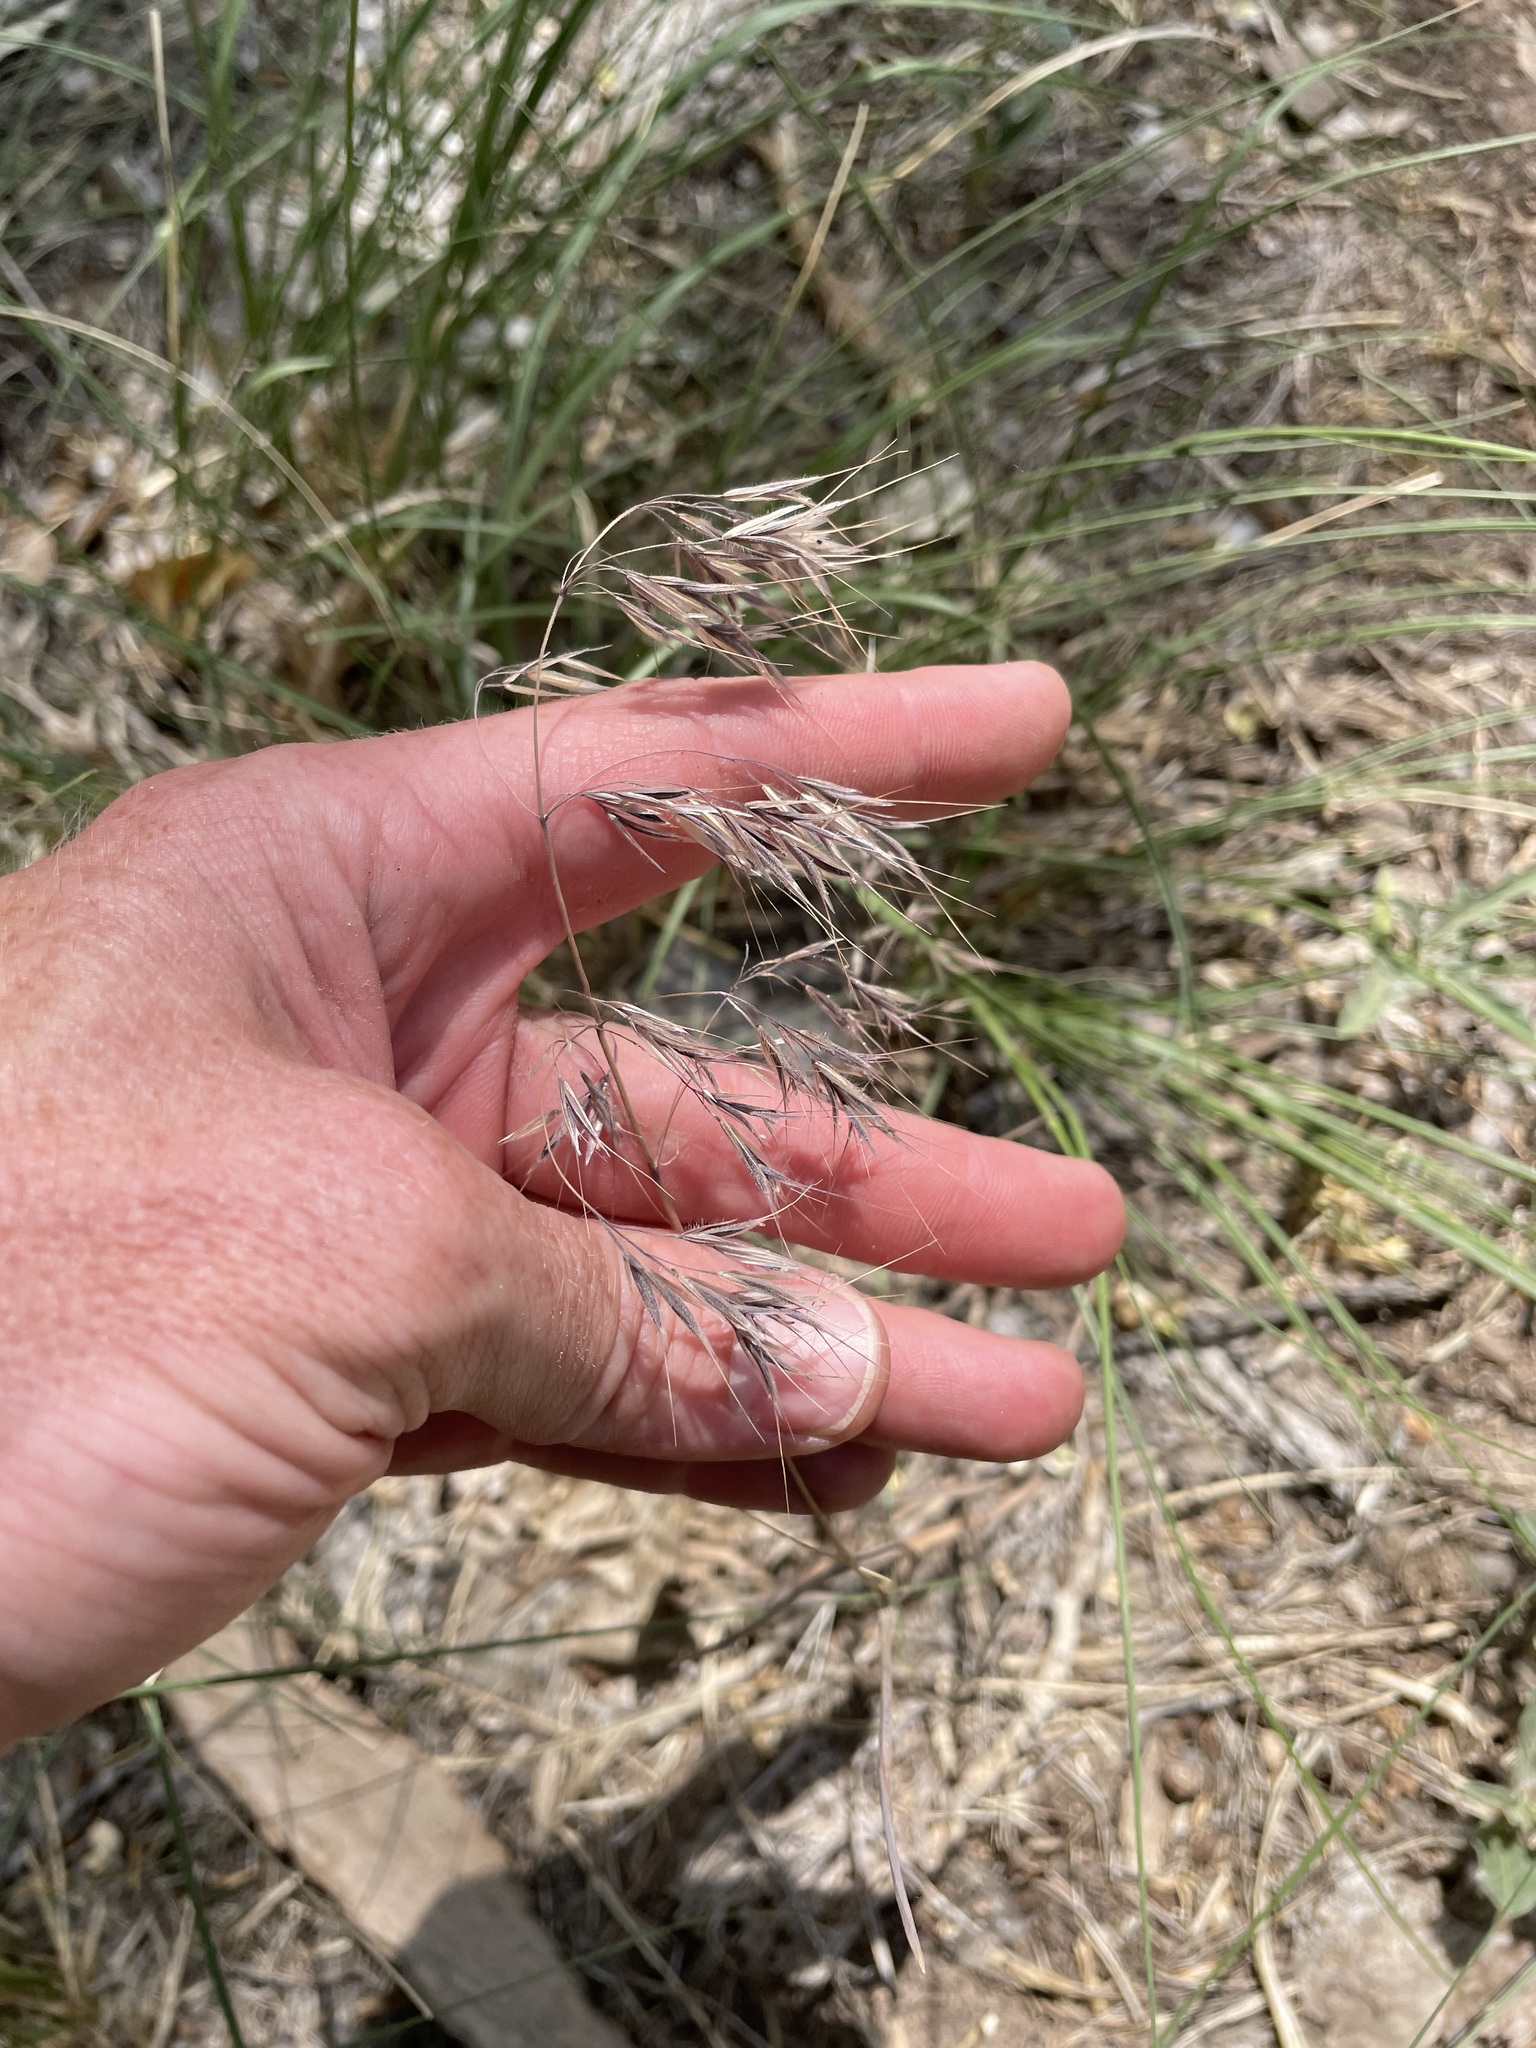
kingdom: Plantae
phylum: Tracheophyta
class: Liliopsida
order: Poales
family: Poaceae
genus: Bromus
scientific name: Bromus tectorum
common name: Cheatgrass
